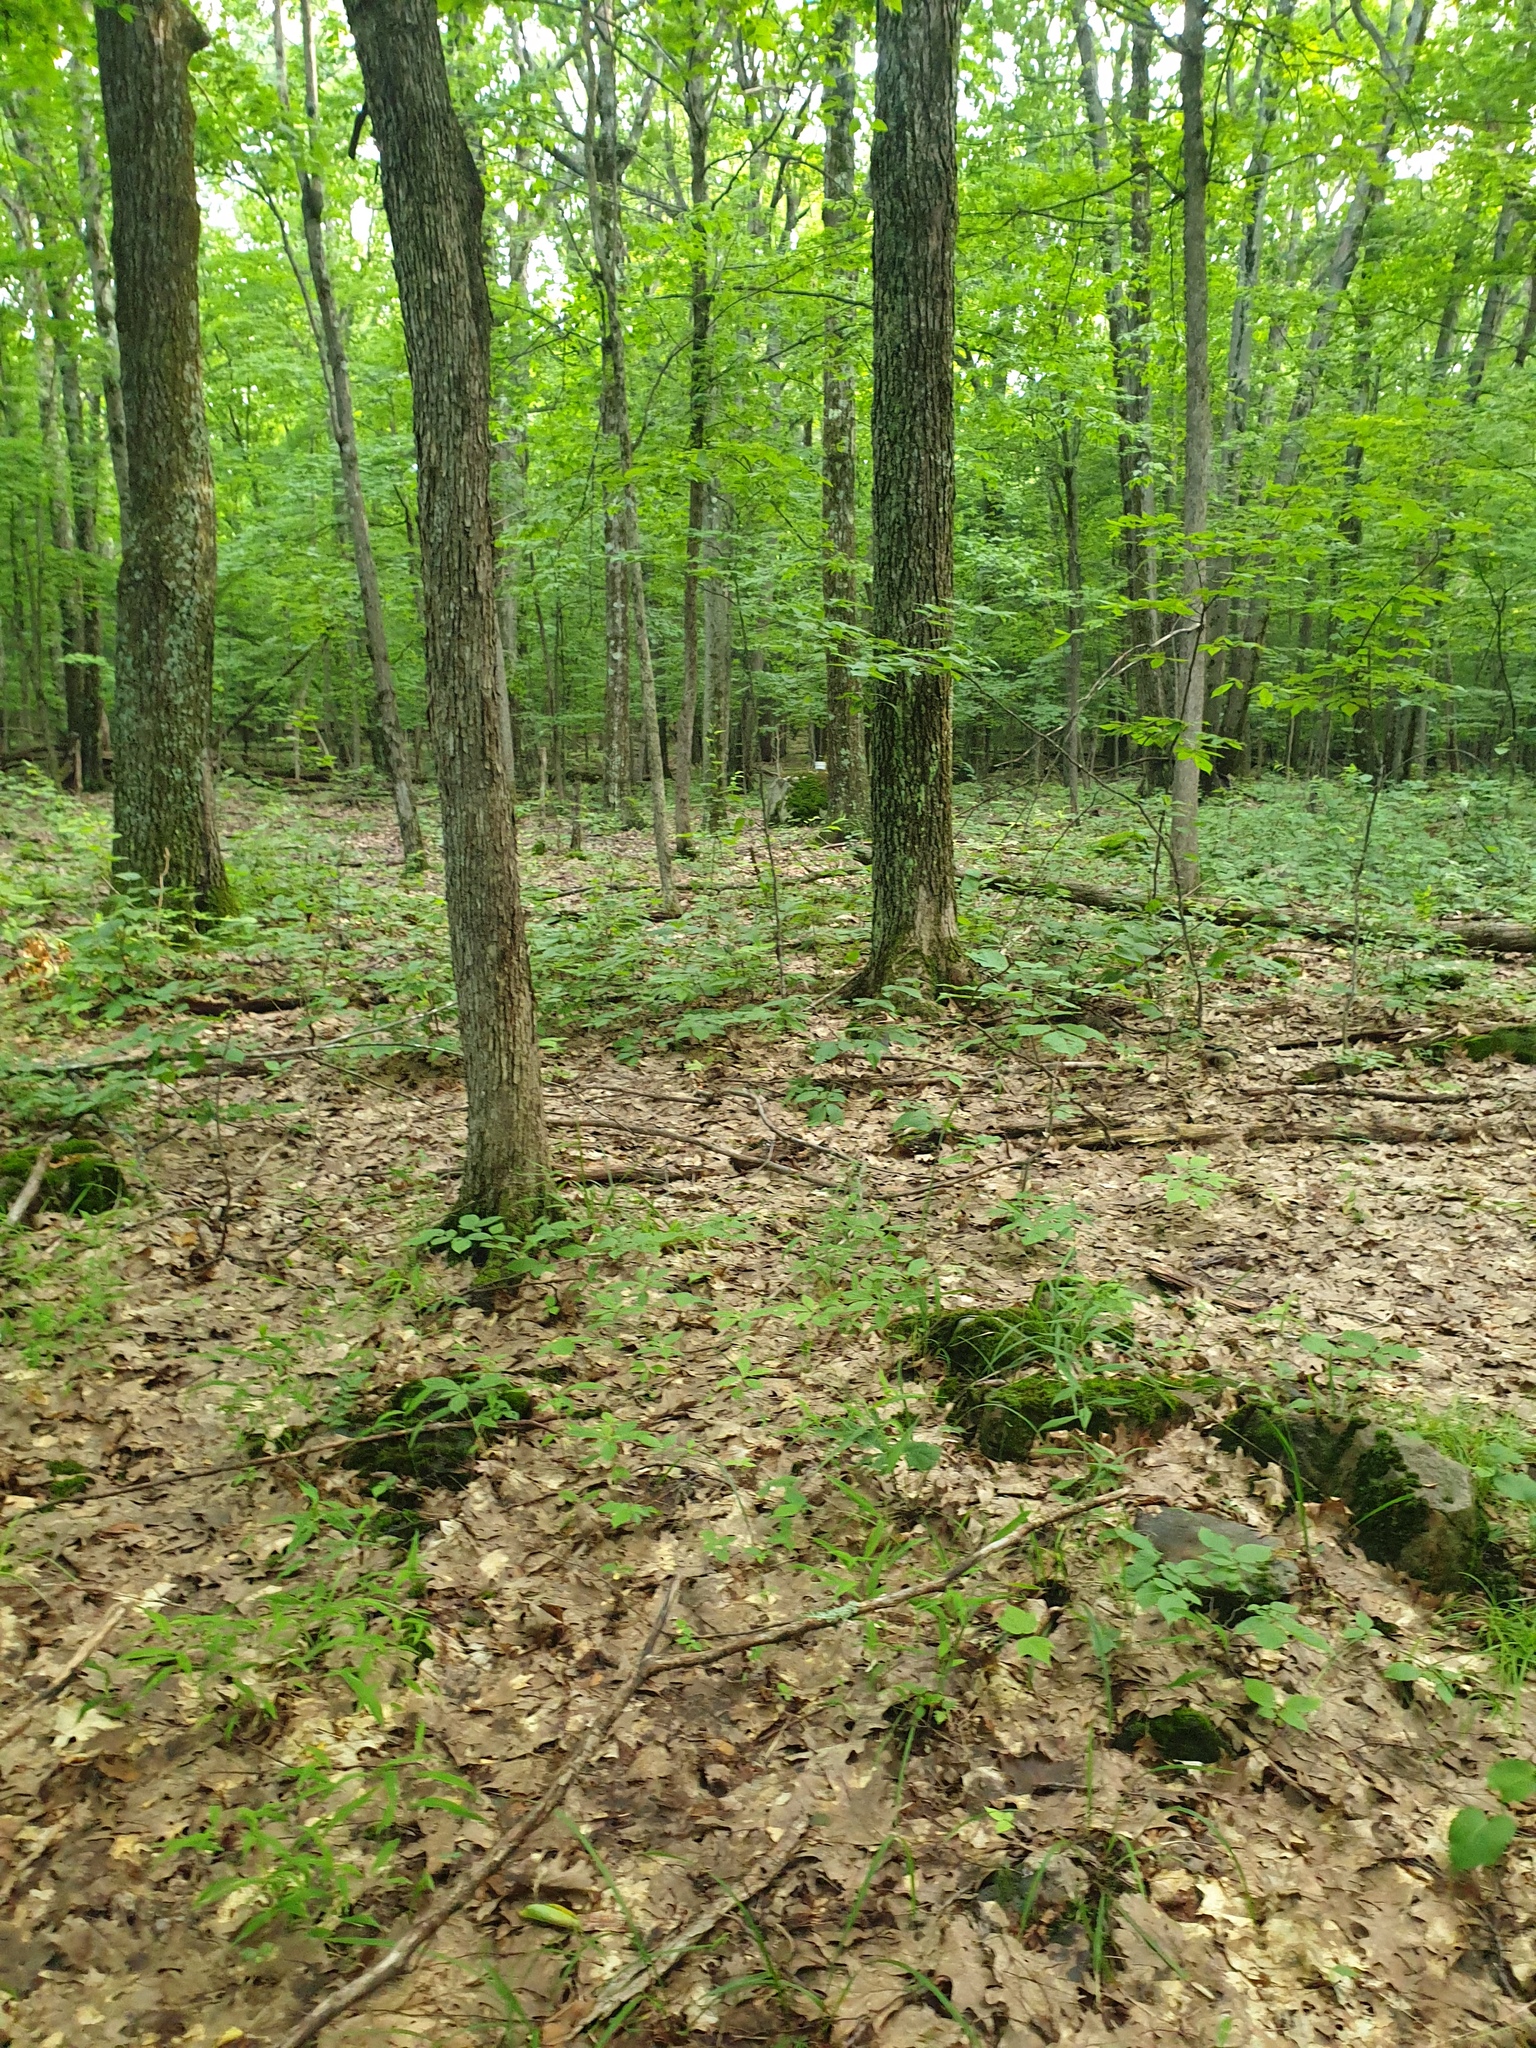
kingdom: Plantae
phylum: Tracheophyta
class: Liliopsida
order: Poales
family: Poaceae
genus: Brachyelytrum
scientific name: Brachyelytrum aristosum
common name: Northern shorthusk
